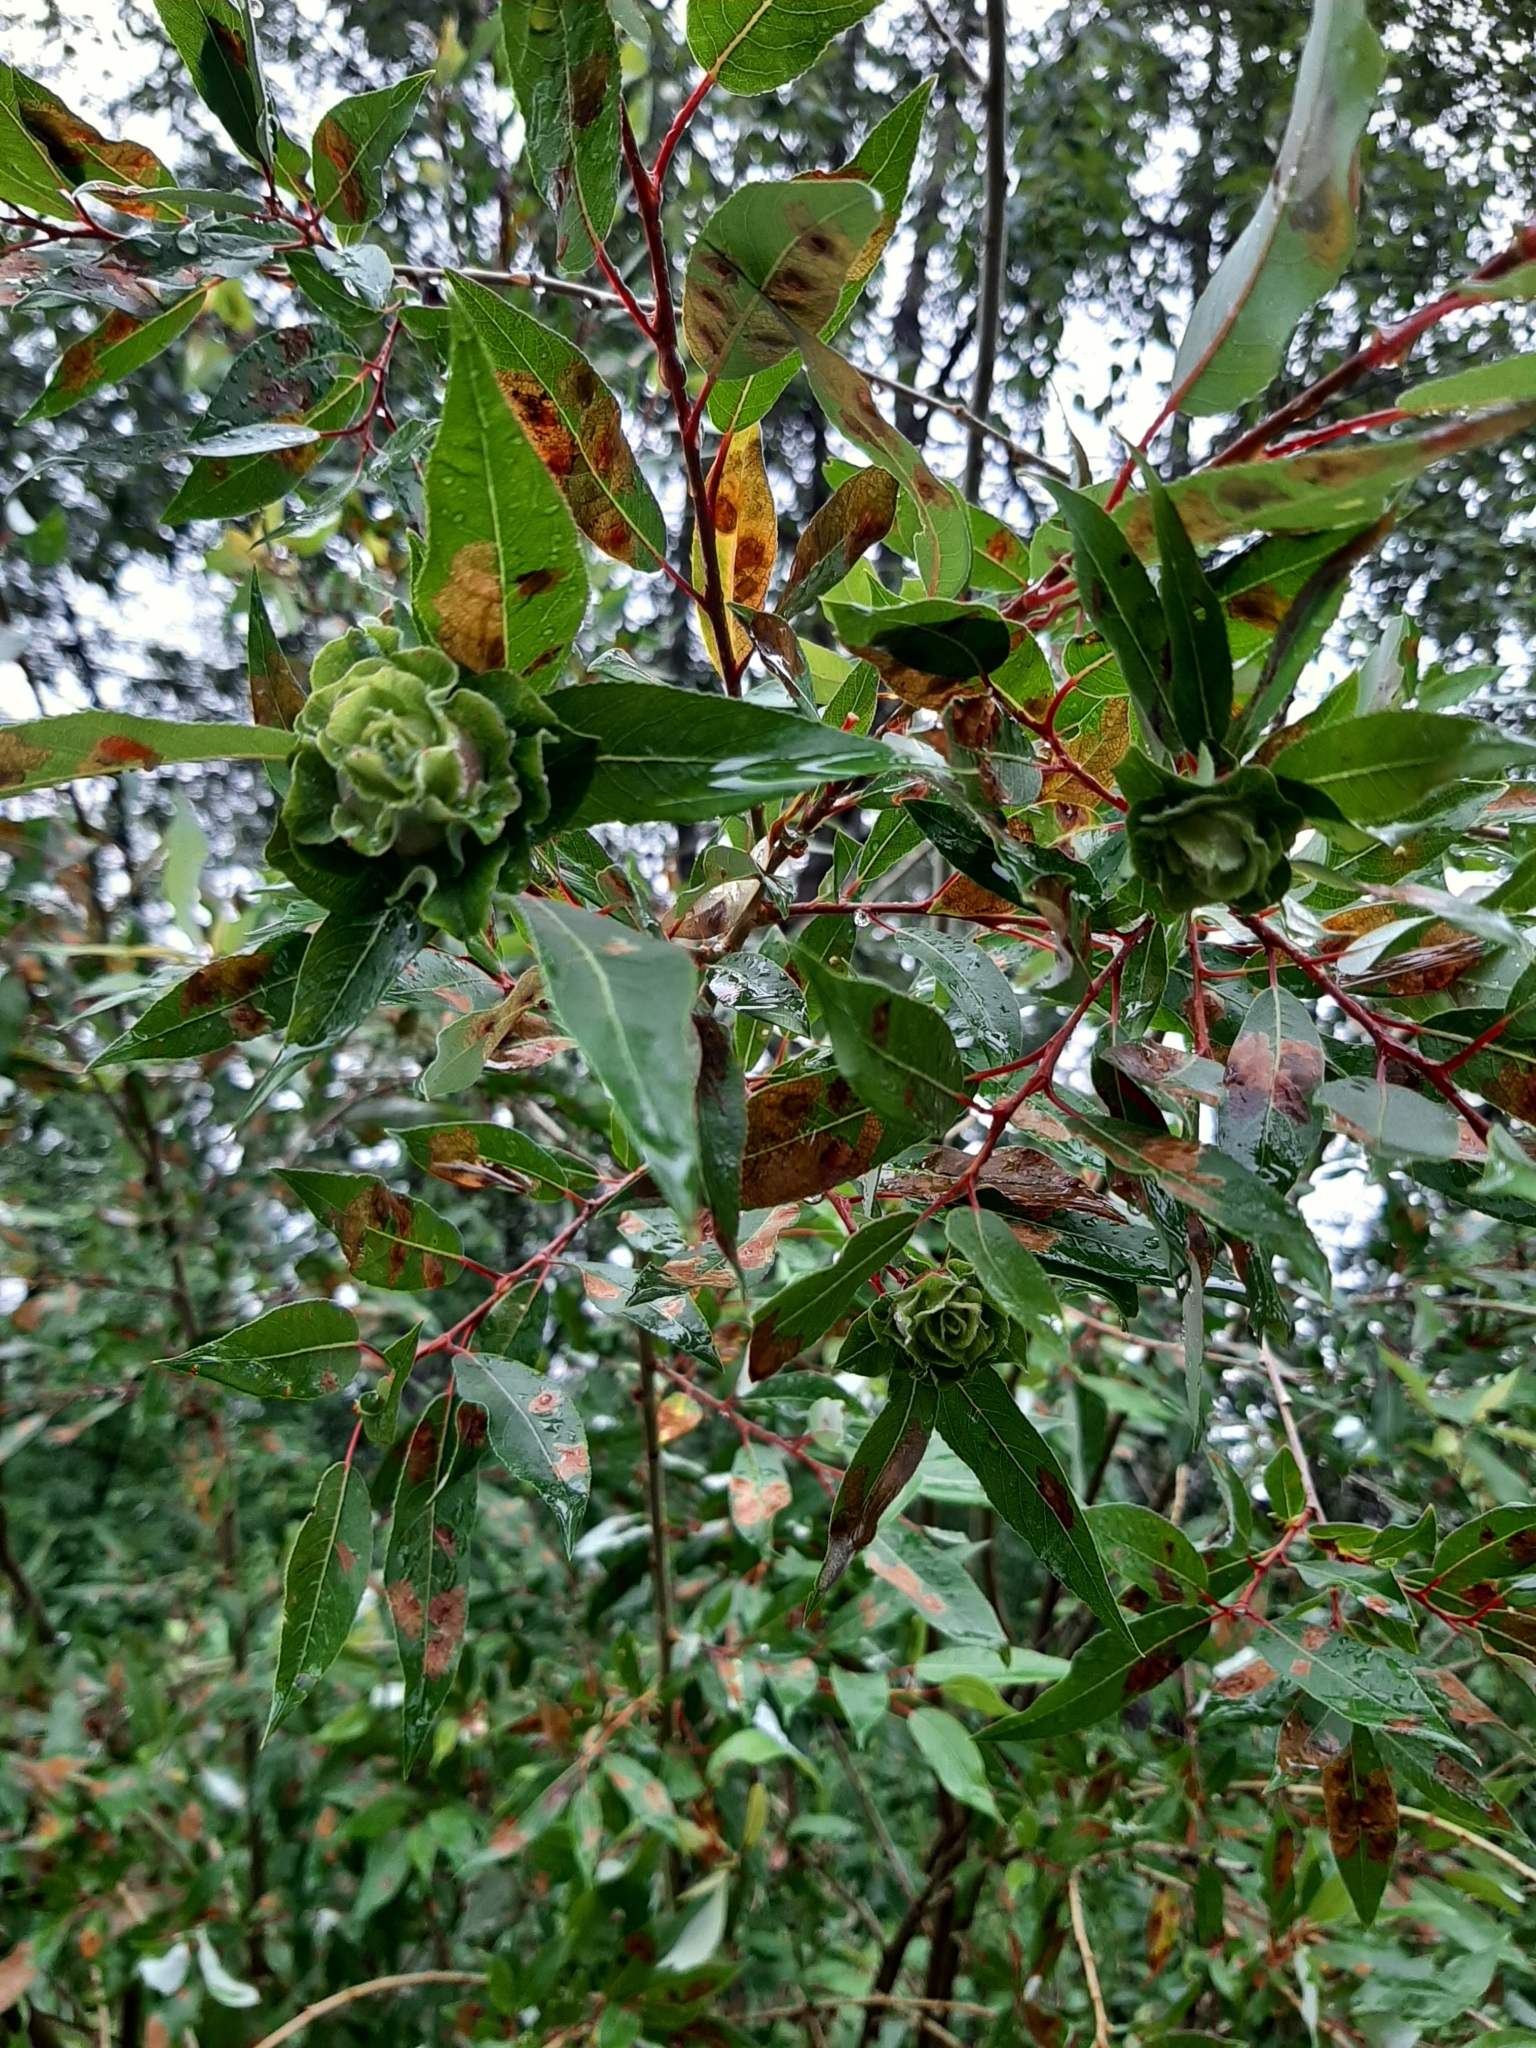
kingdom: Animalia
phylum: Arthropoda
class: Insecta
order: Diptera
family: Cecidomyiidae
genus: Rabdophaga
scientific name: Rabdophaga strobiloides
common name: Willow pinecone gall midge
